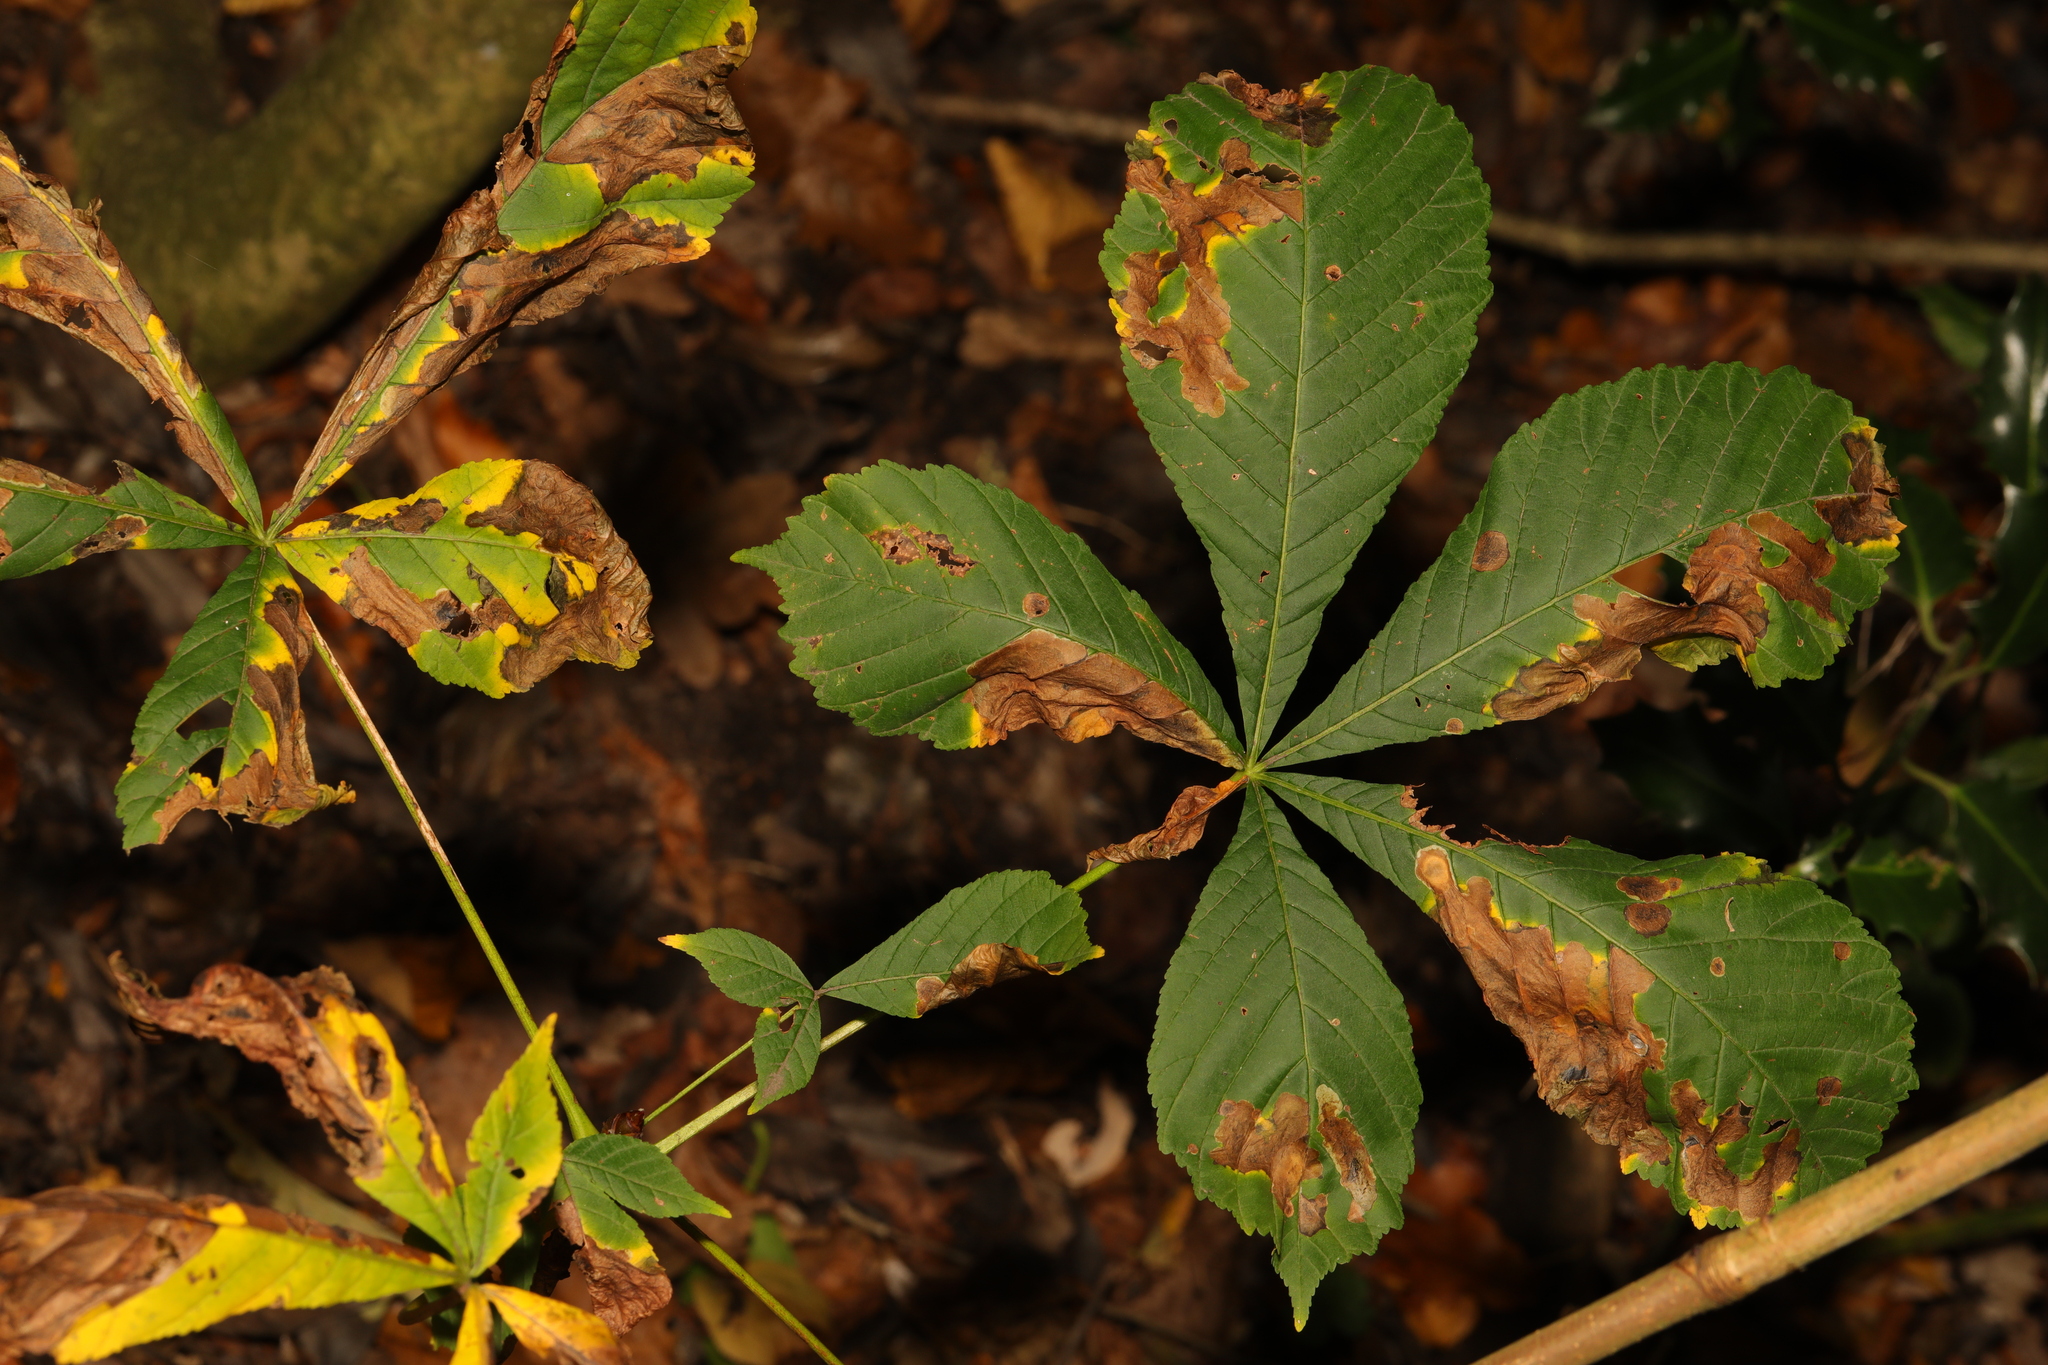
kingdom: Plantae
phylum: Tracheophyta
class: Magnoliopsida
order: Sapindales
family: Sapindaceae
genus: Aesculus
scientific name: Aesculus hippocastanum
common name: Horse-chestnut
